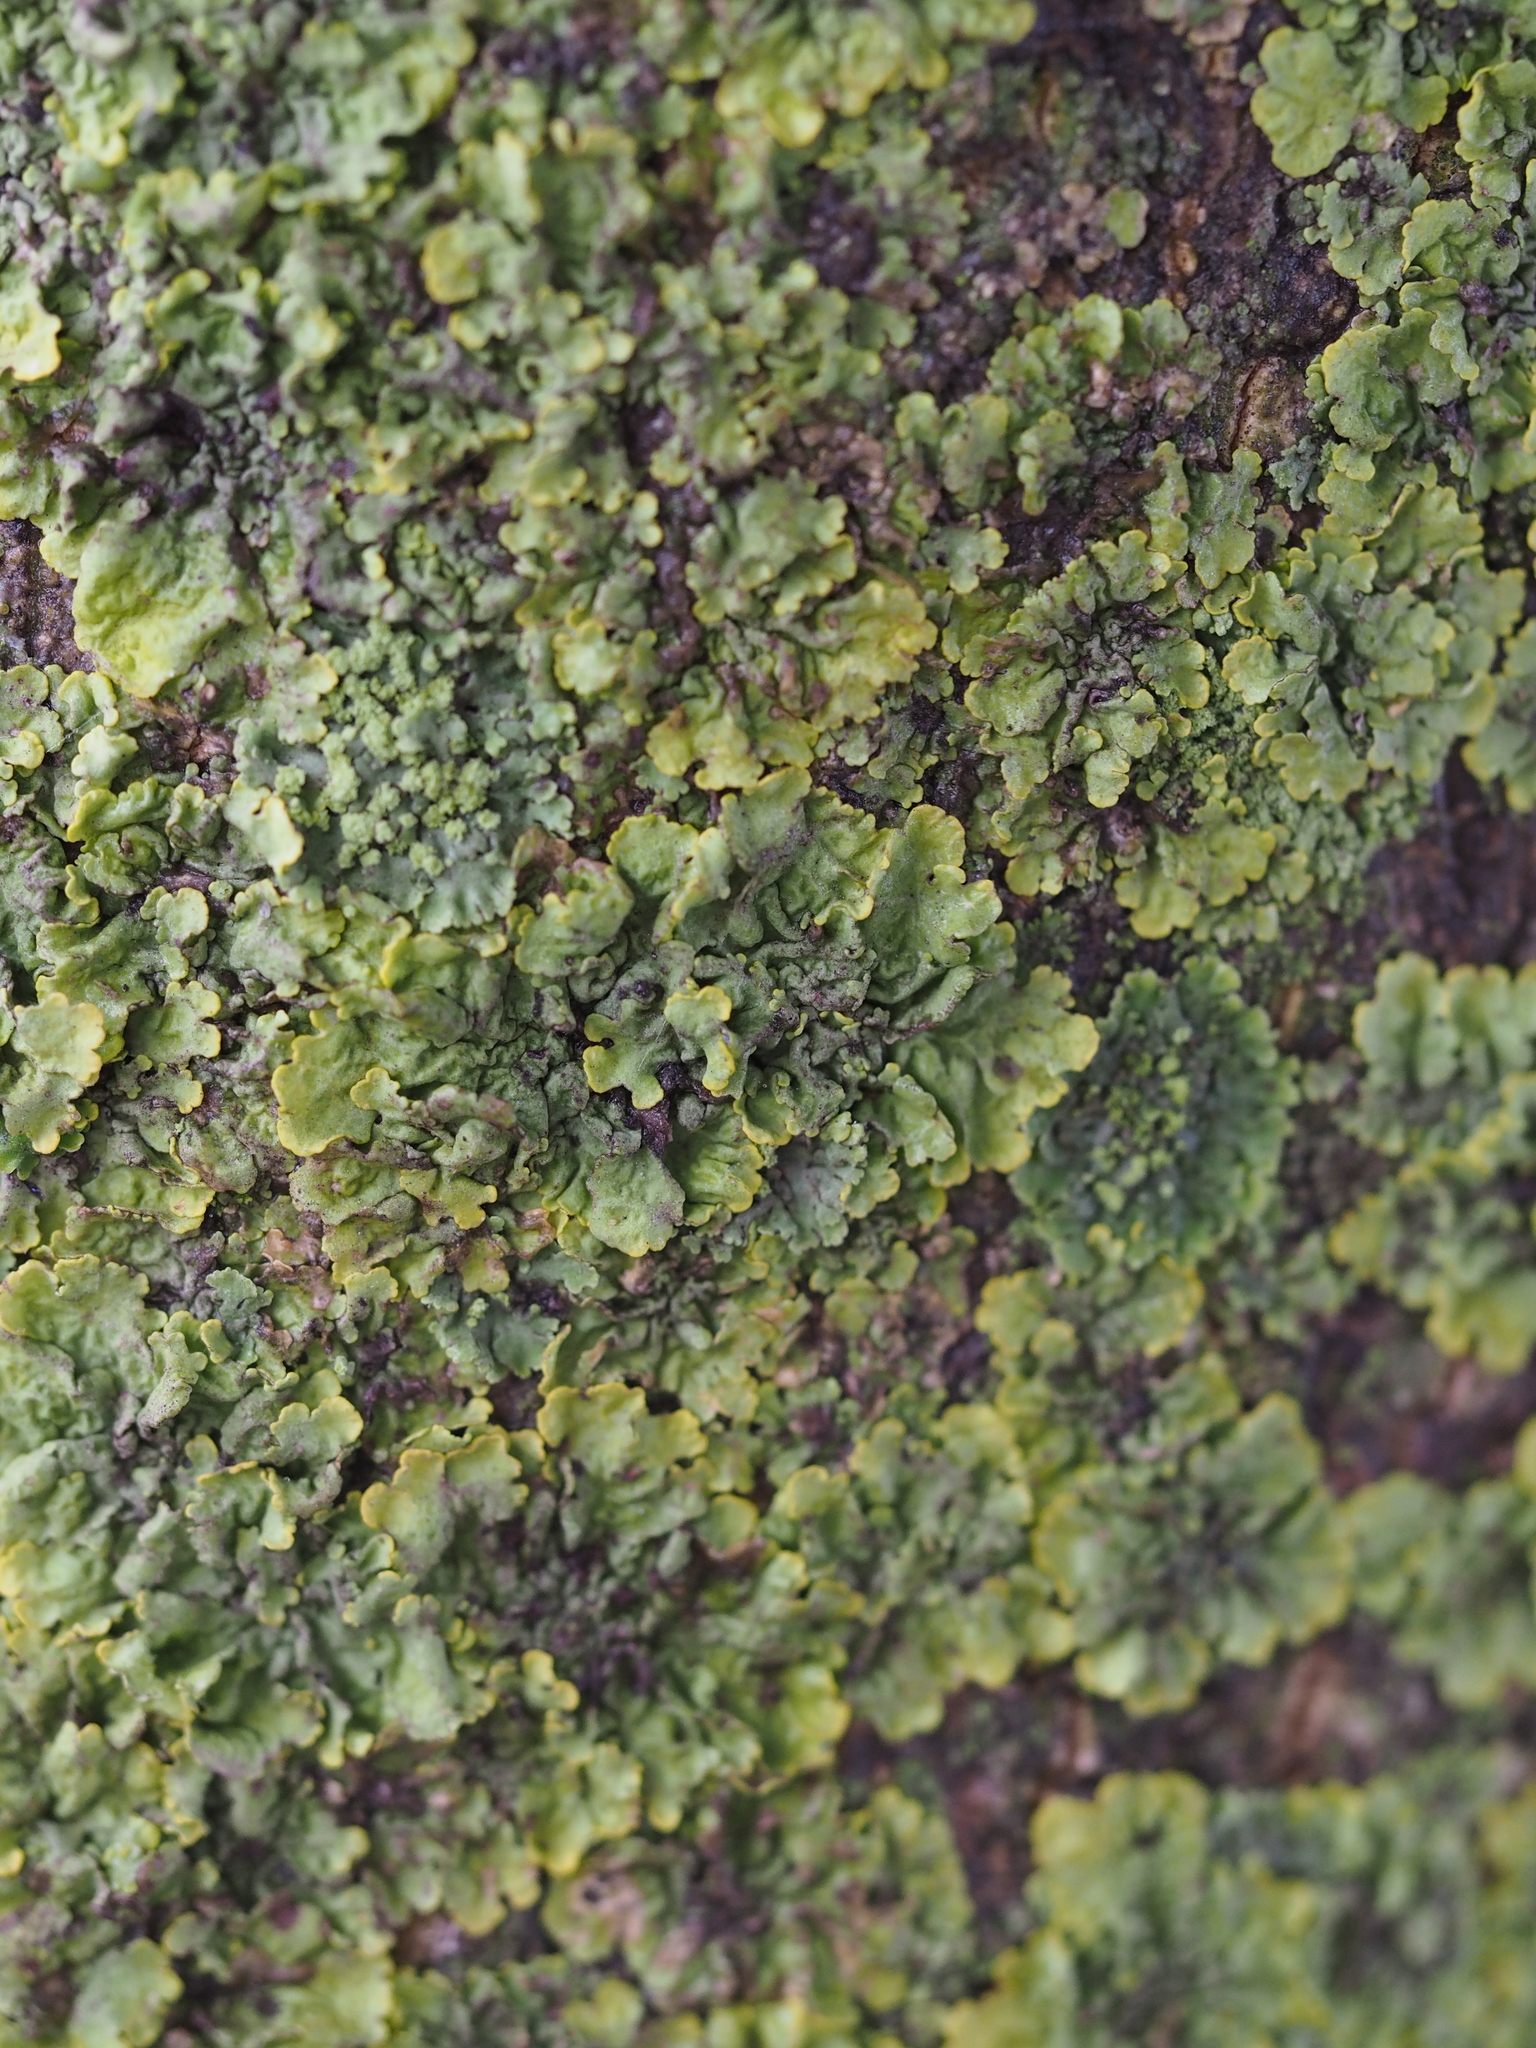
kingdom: Fungi
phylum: Ascomycota
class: Lecanoromycetes
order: Teloschistales
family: Teloschistaceae
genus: Xanthoria
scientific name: Xanthoria parietina
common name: Common orange lichen
